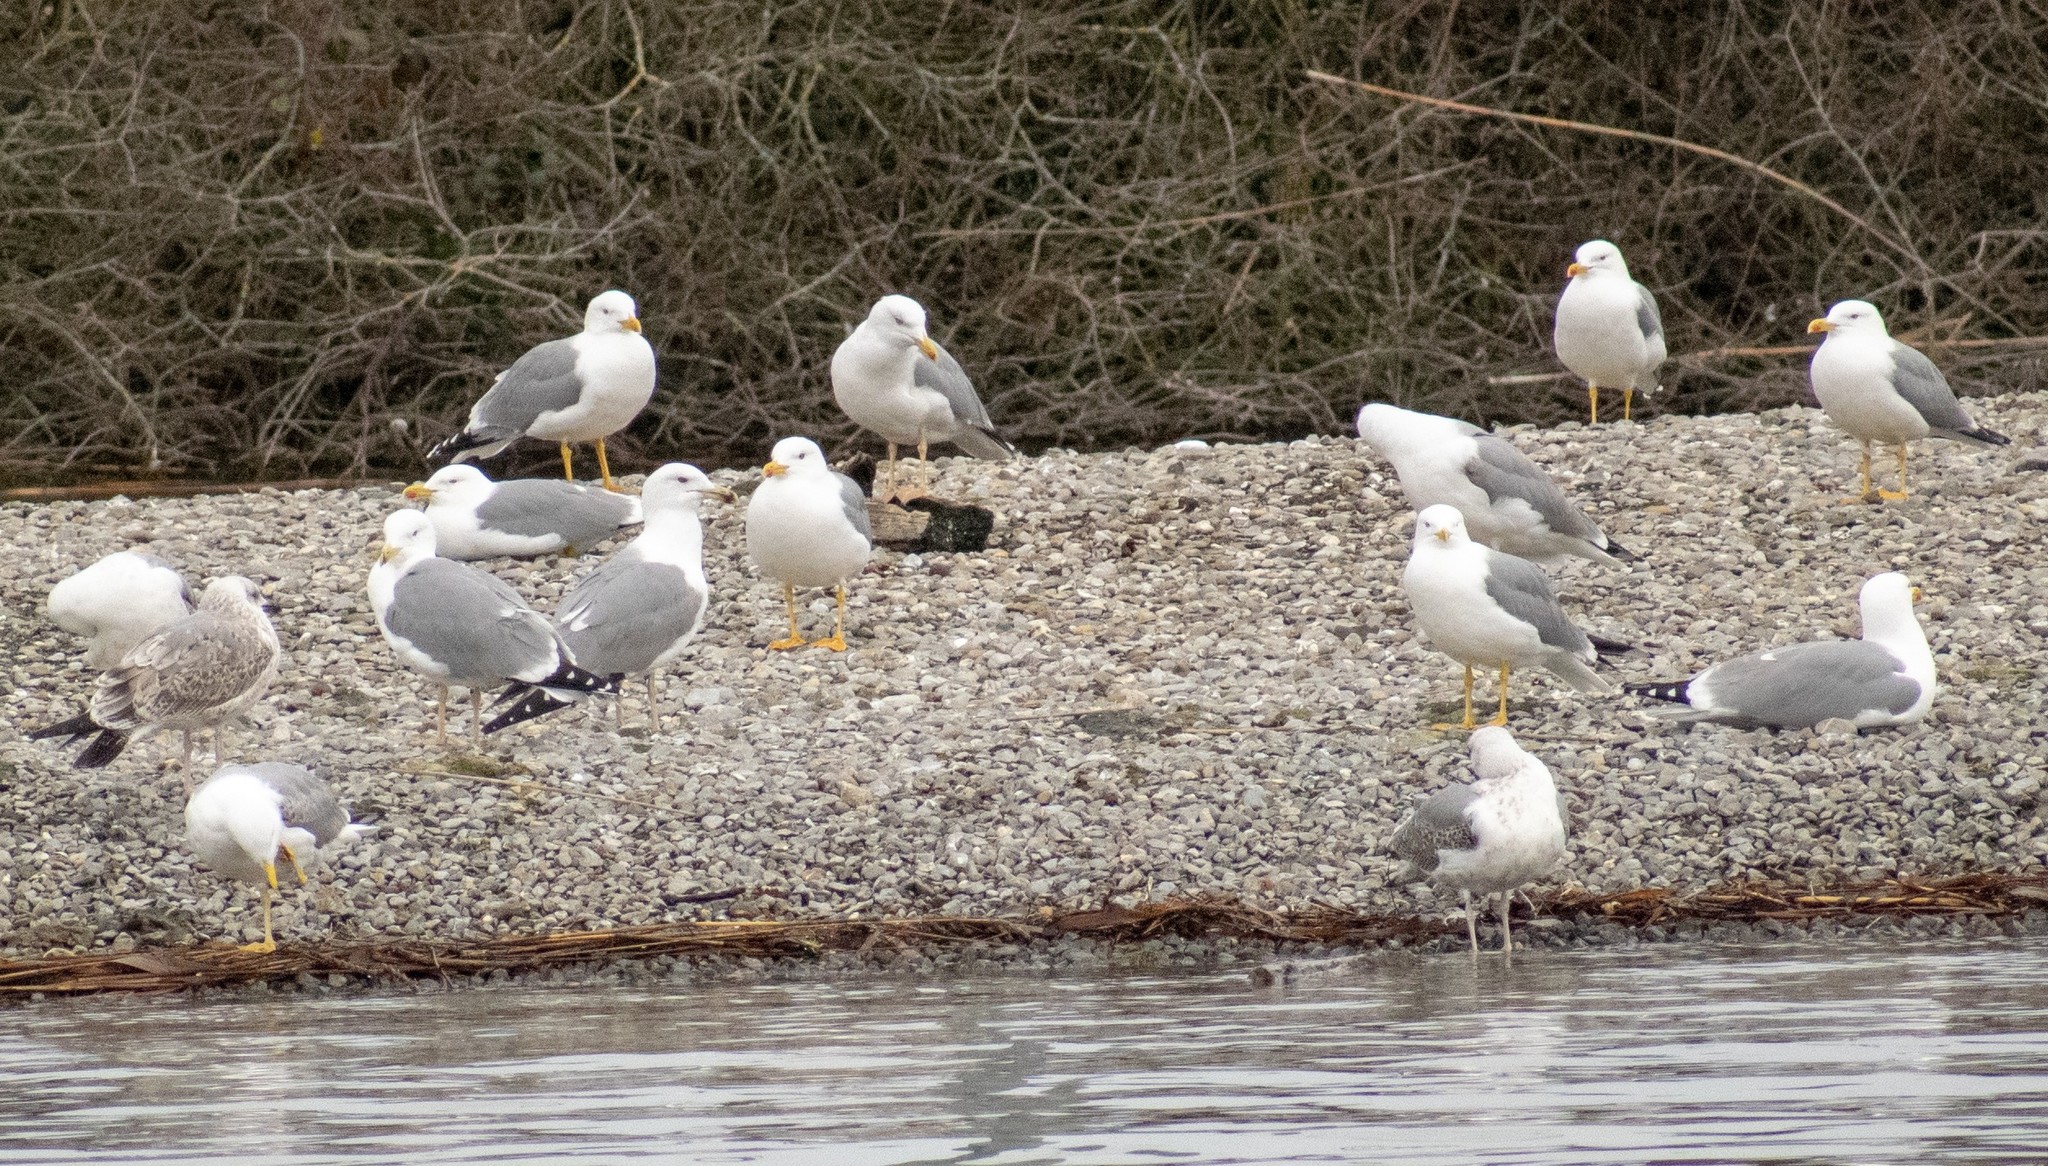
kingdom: Animalia
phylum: Chordata
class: Aves
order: Charadriiformes
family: Laridae
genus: Larus
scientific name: Larus michahellis
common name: Yellow-legged gull
